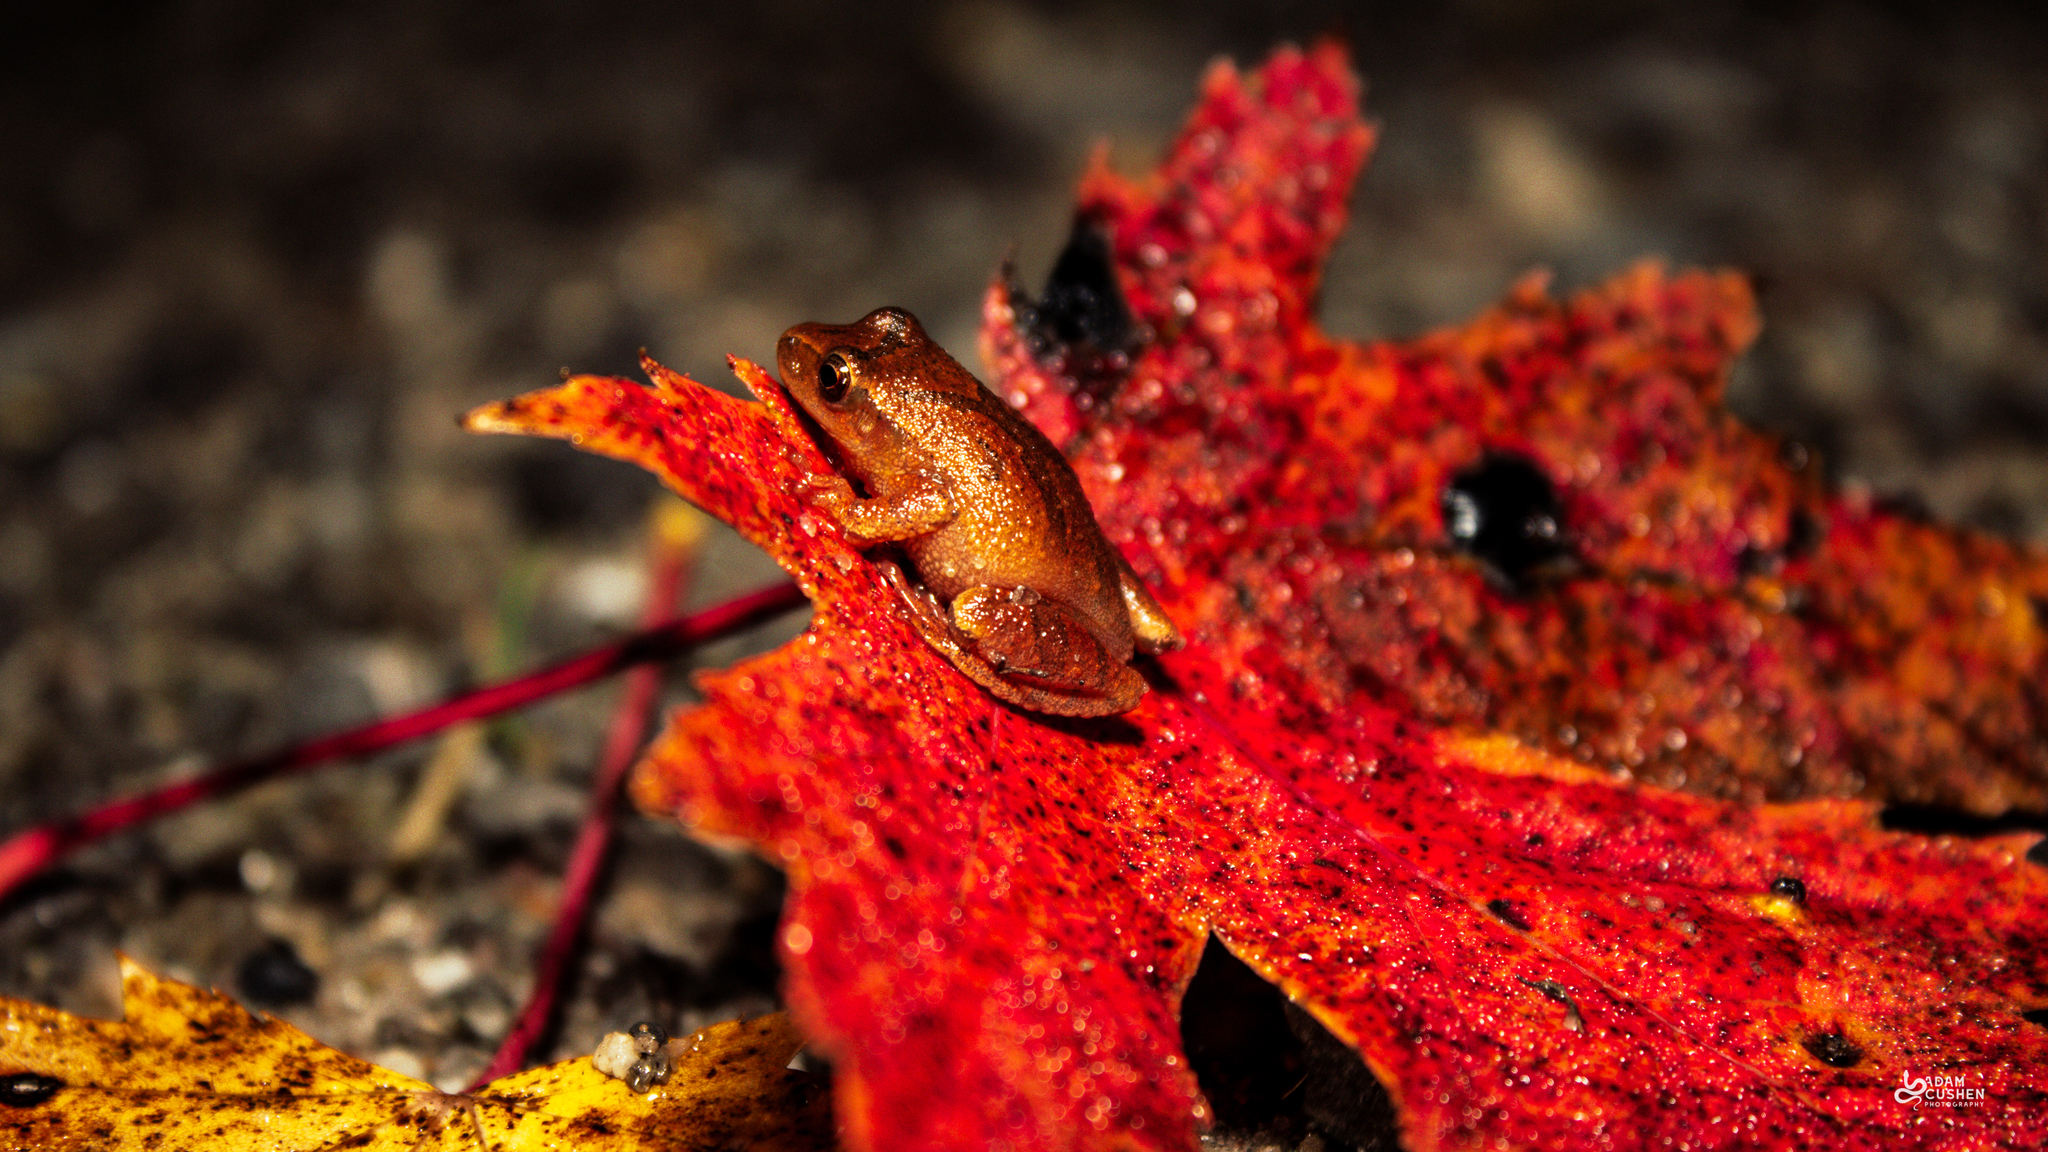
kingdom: Animalia
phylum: Chordata
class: Amphibia
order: Anura
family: Hylidae
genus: Pseudacris
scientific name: Pseudacris crucifer
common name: Spring peeper
